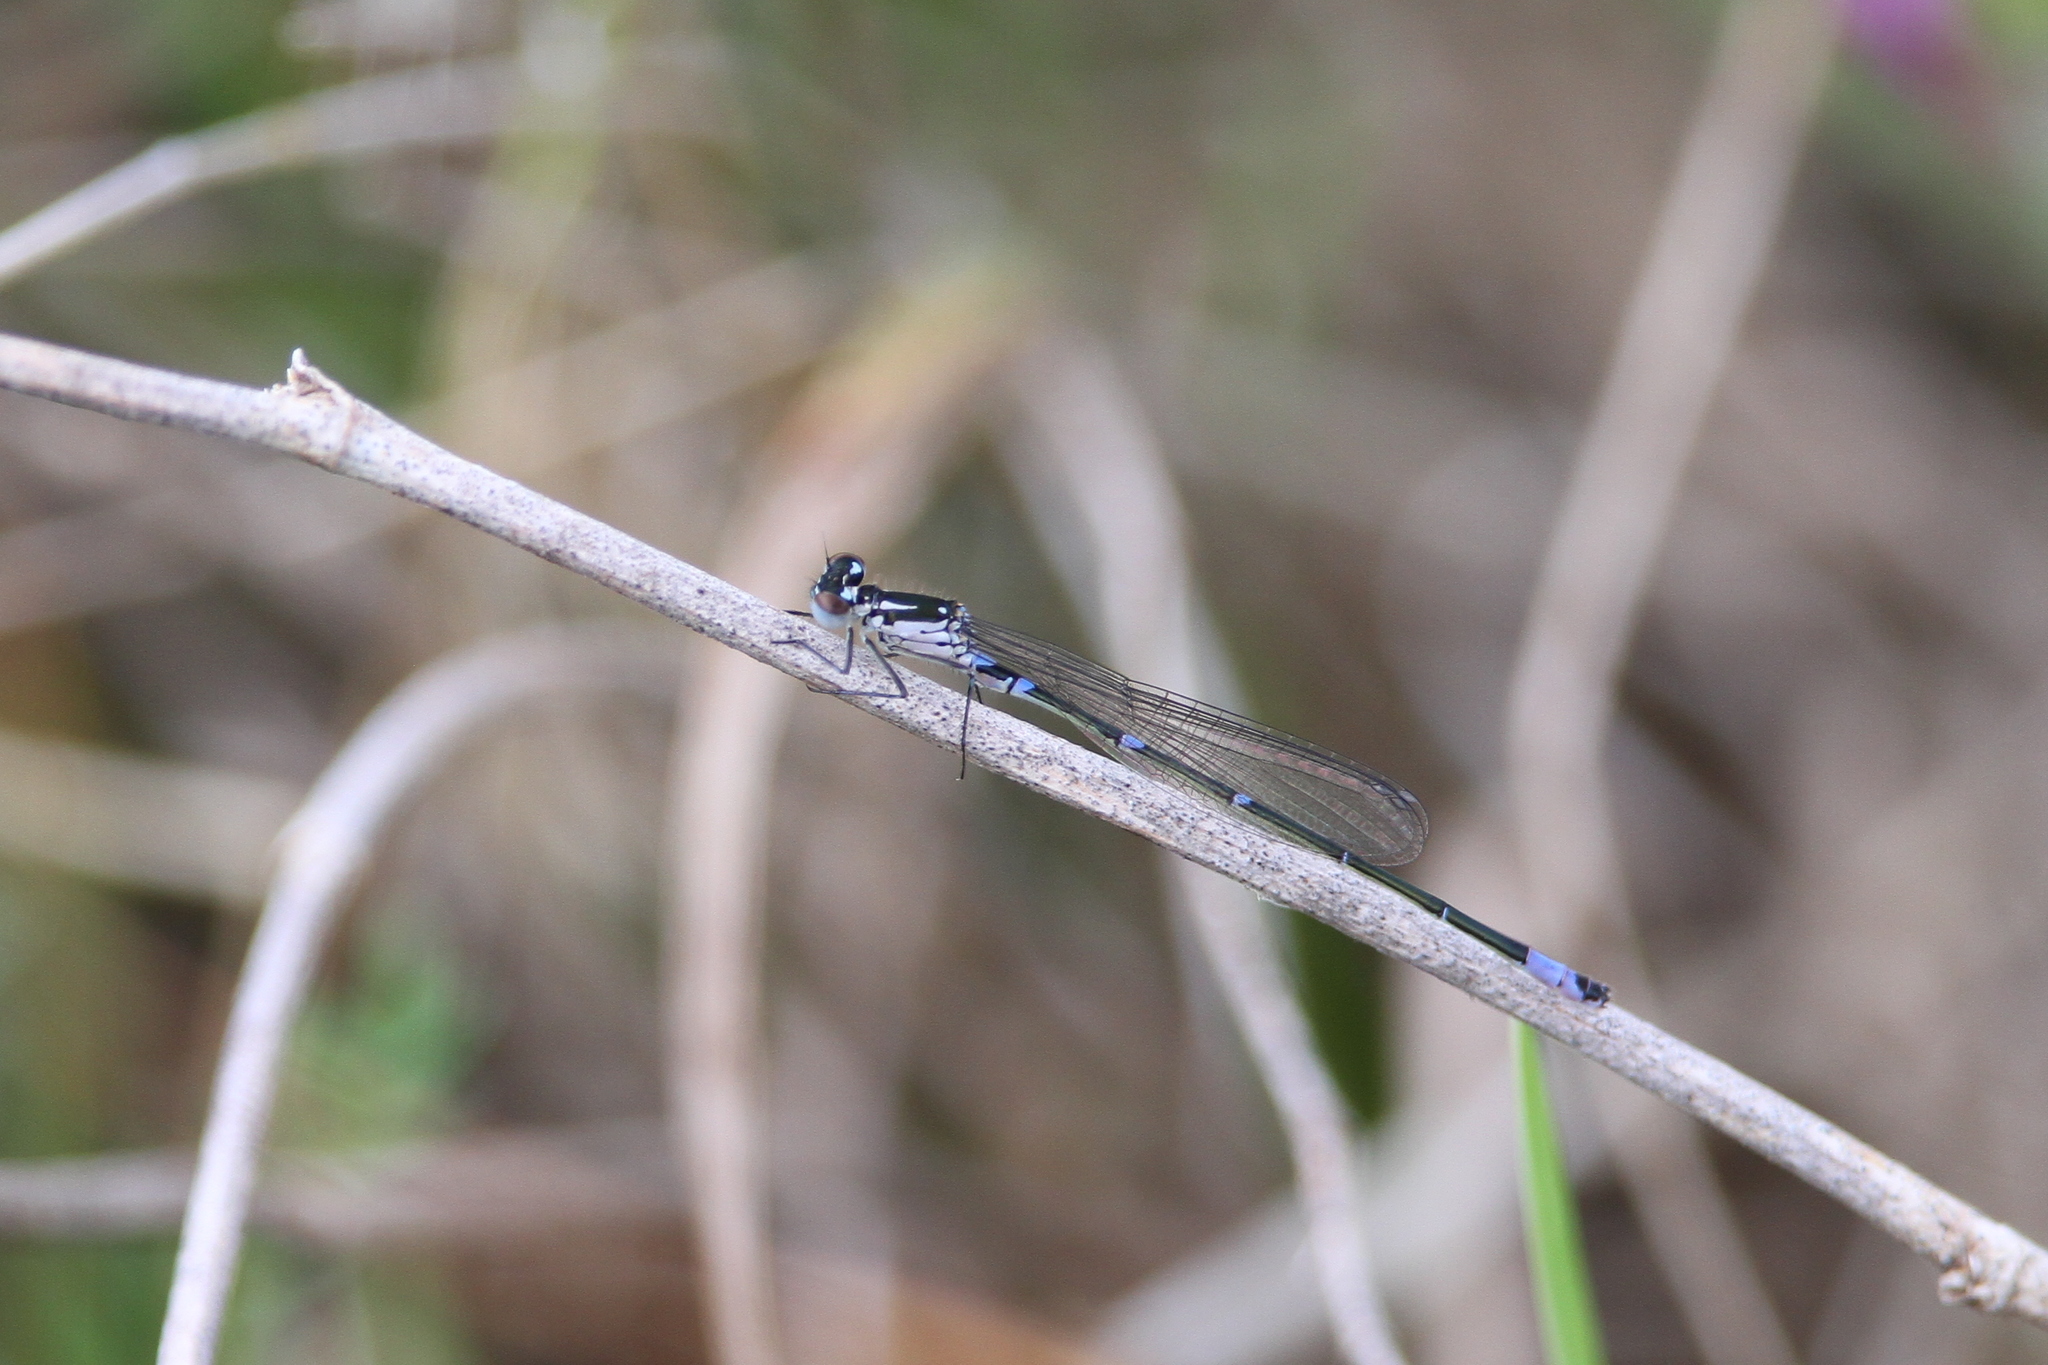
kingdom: Animalia
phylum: Arthropoda
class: Insecta
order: Odonata
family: Coenagrionidae
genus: Coenagrion
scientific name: Coenagrion pulchellum
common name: Variable bluet
